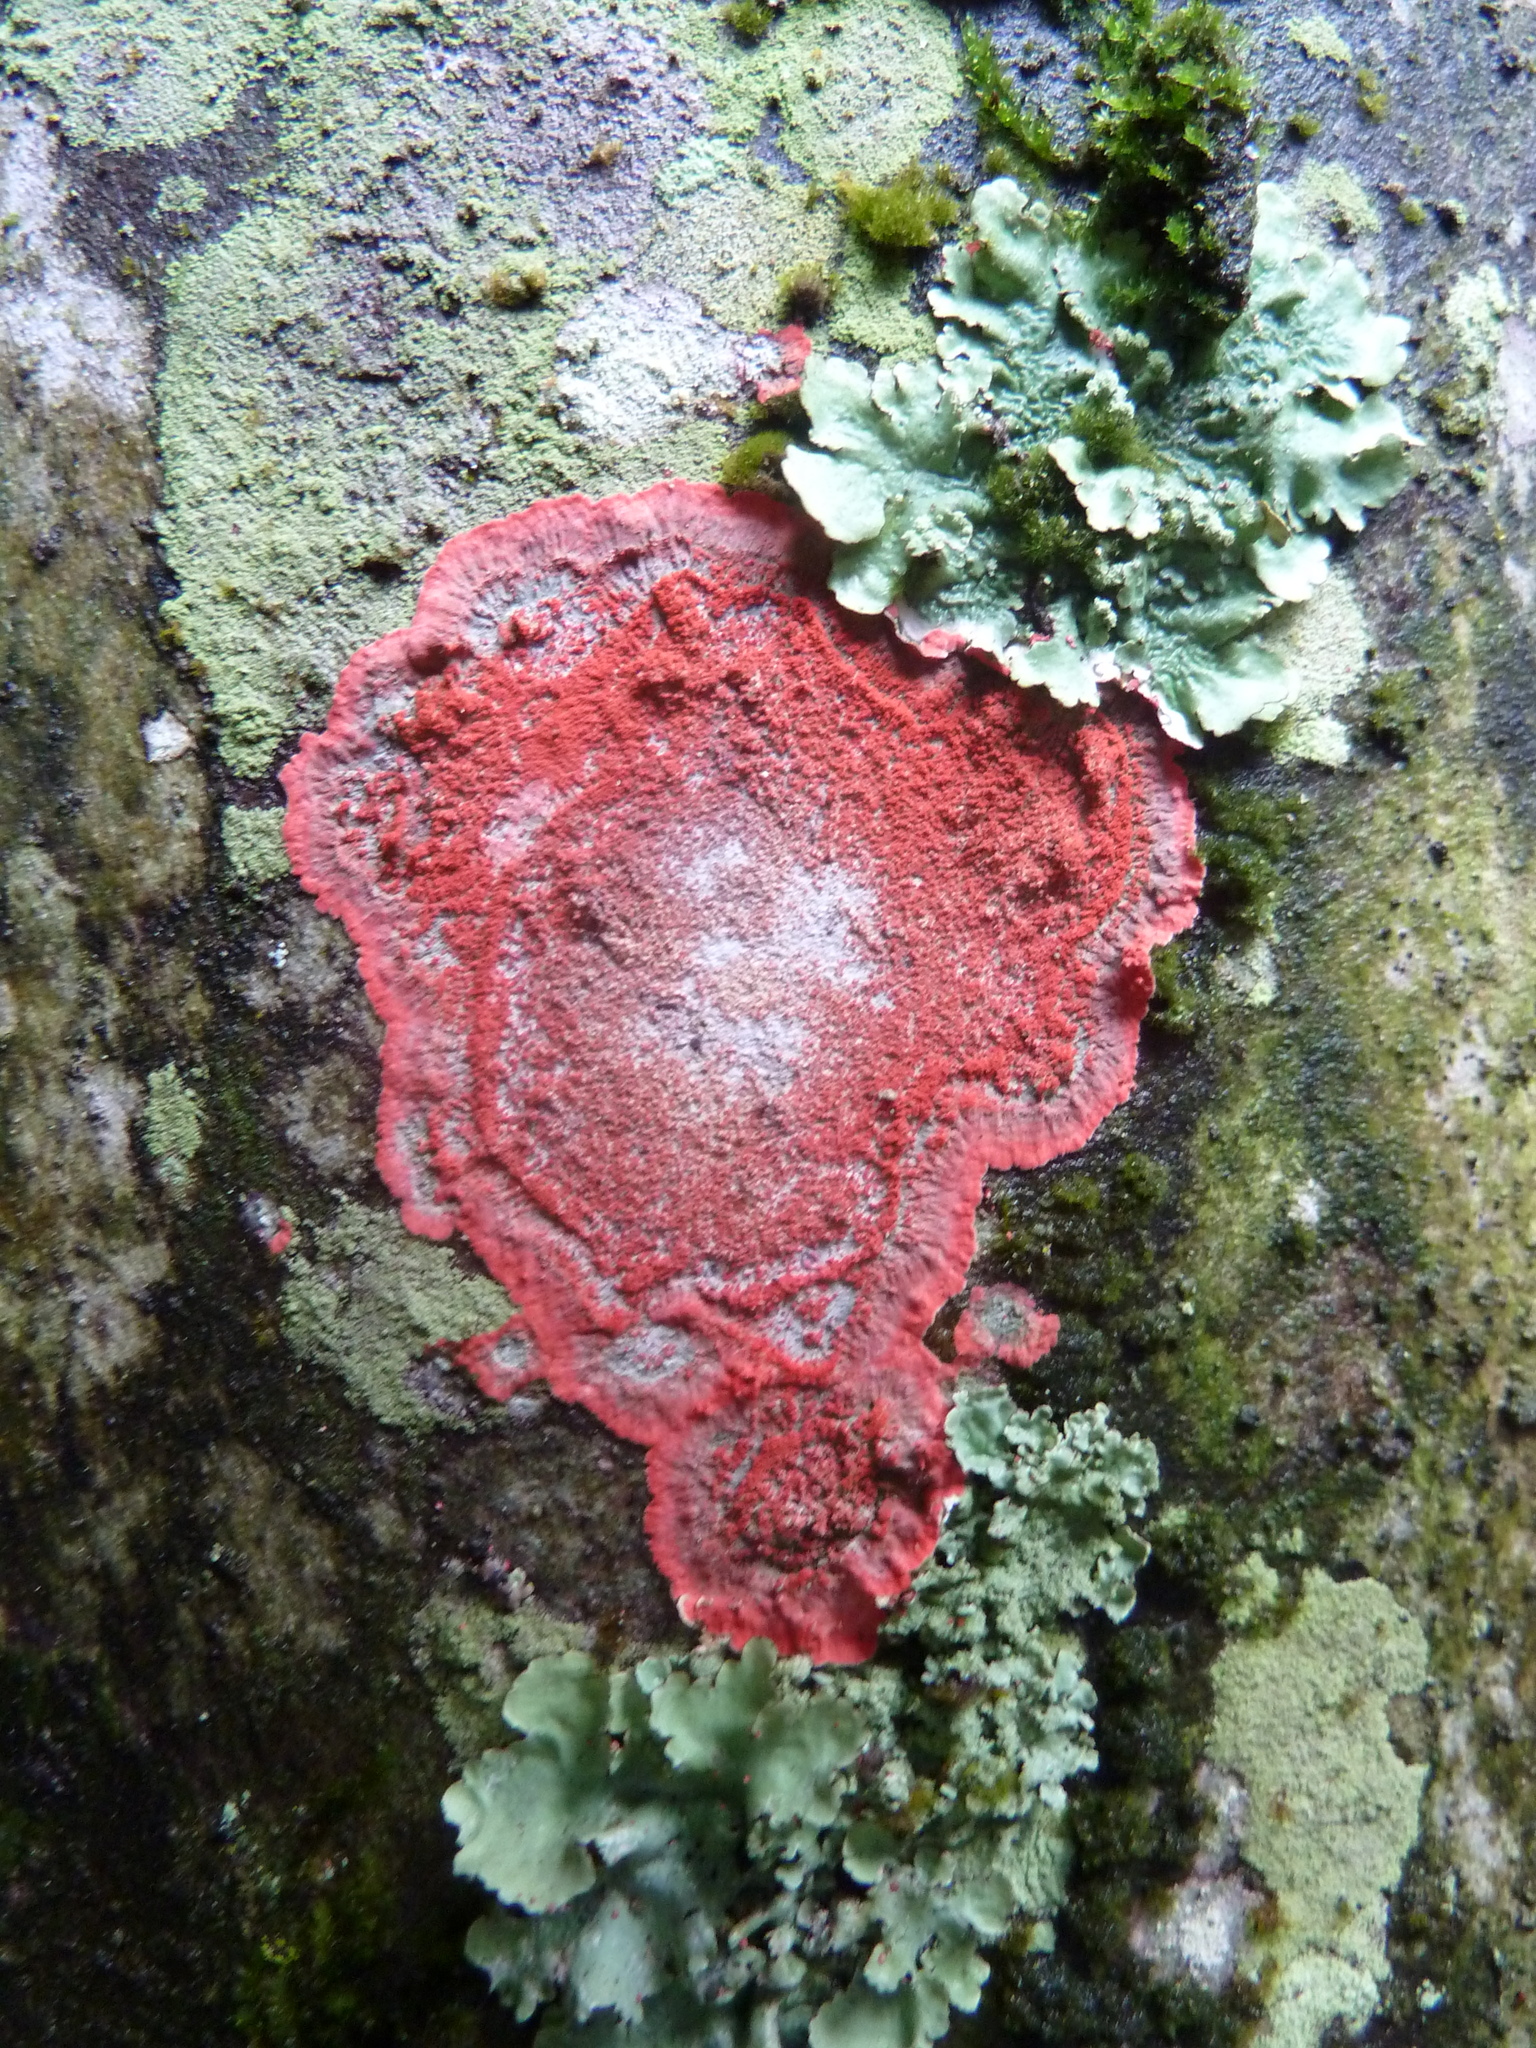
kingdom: Fungi
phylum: Ascomycota
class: Arthoniomycetes
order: Arthoniales
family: Arthoniaceae
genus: Herpothallon
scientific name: Herpothallon rubrocinctum
